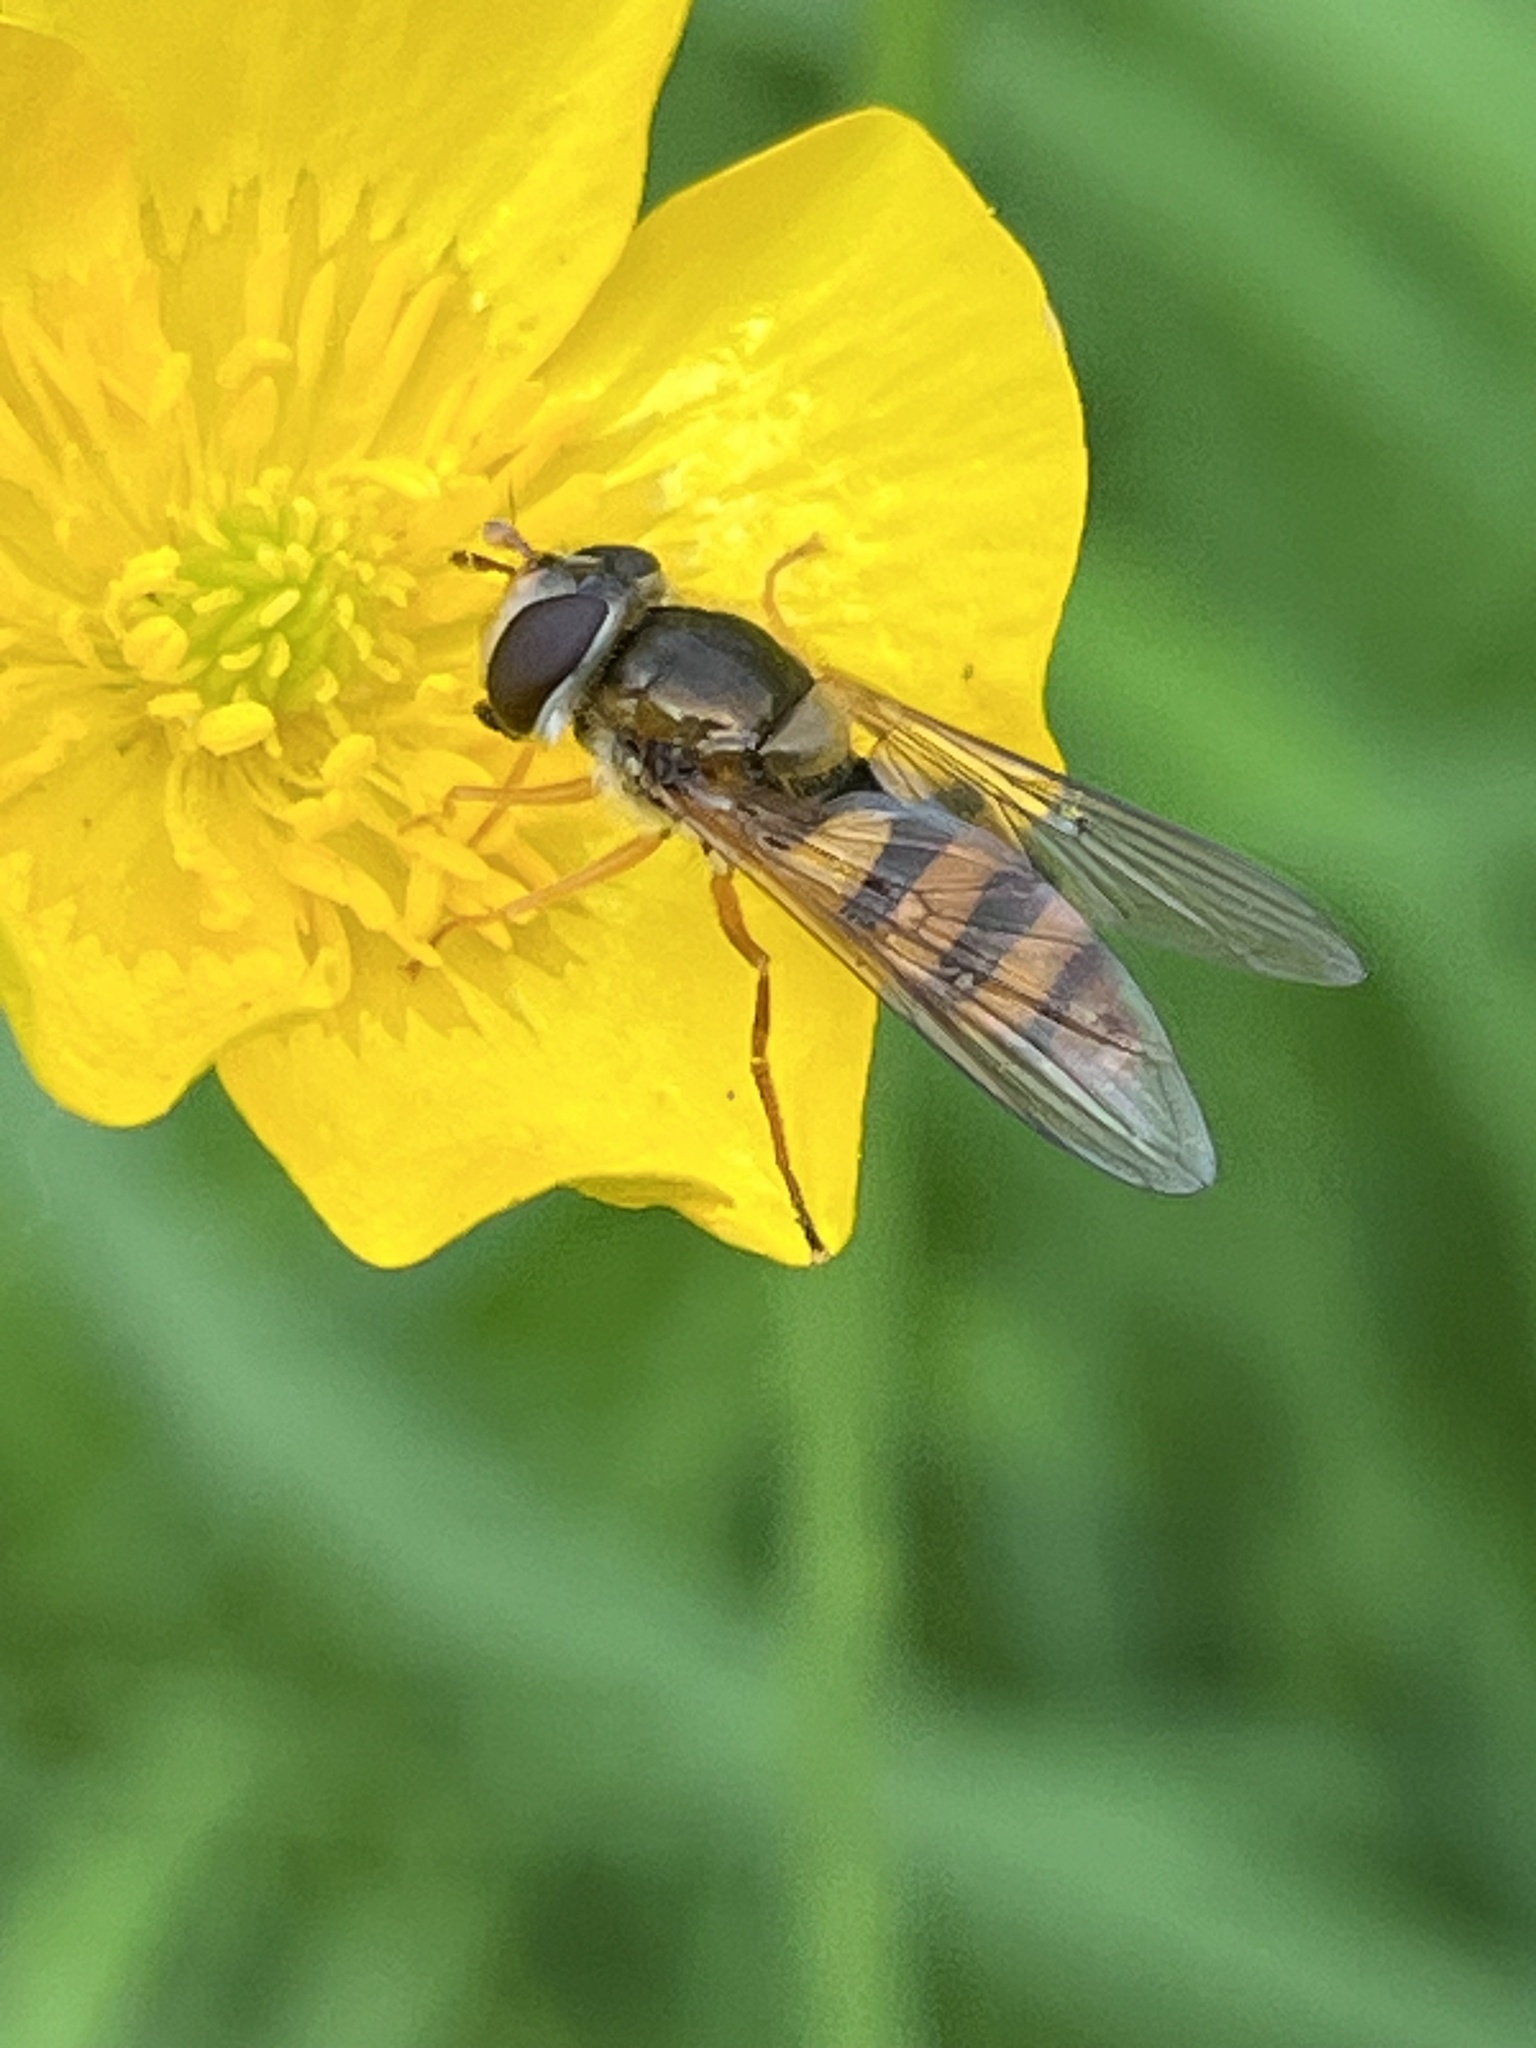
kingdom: Animalia
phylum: Arthropoda
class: Insecta
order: Diptera
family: Syrphidae
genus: Syrphus
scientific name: Syrphus ribesii
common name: Common flower fly
